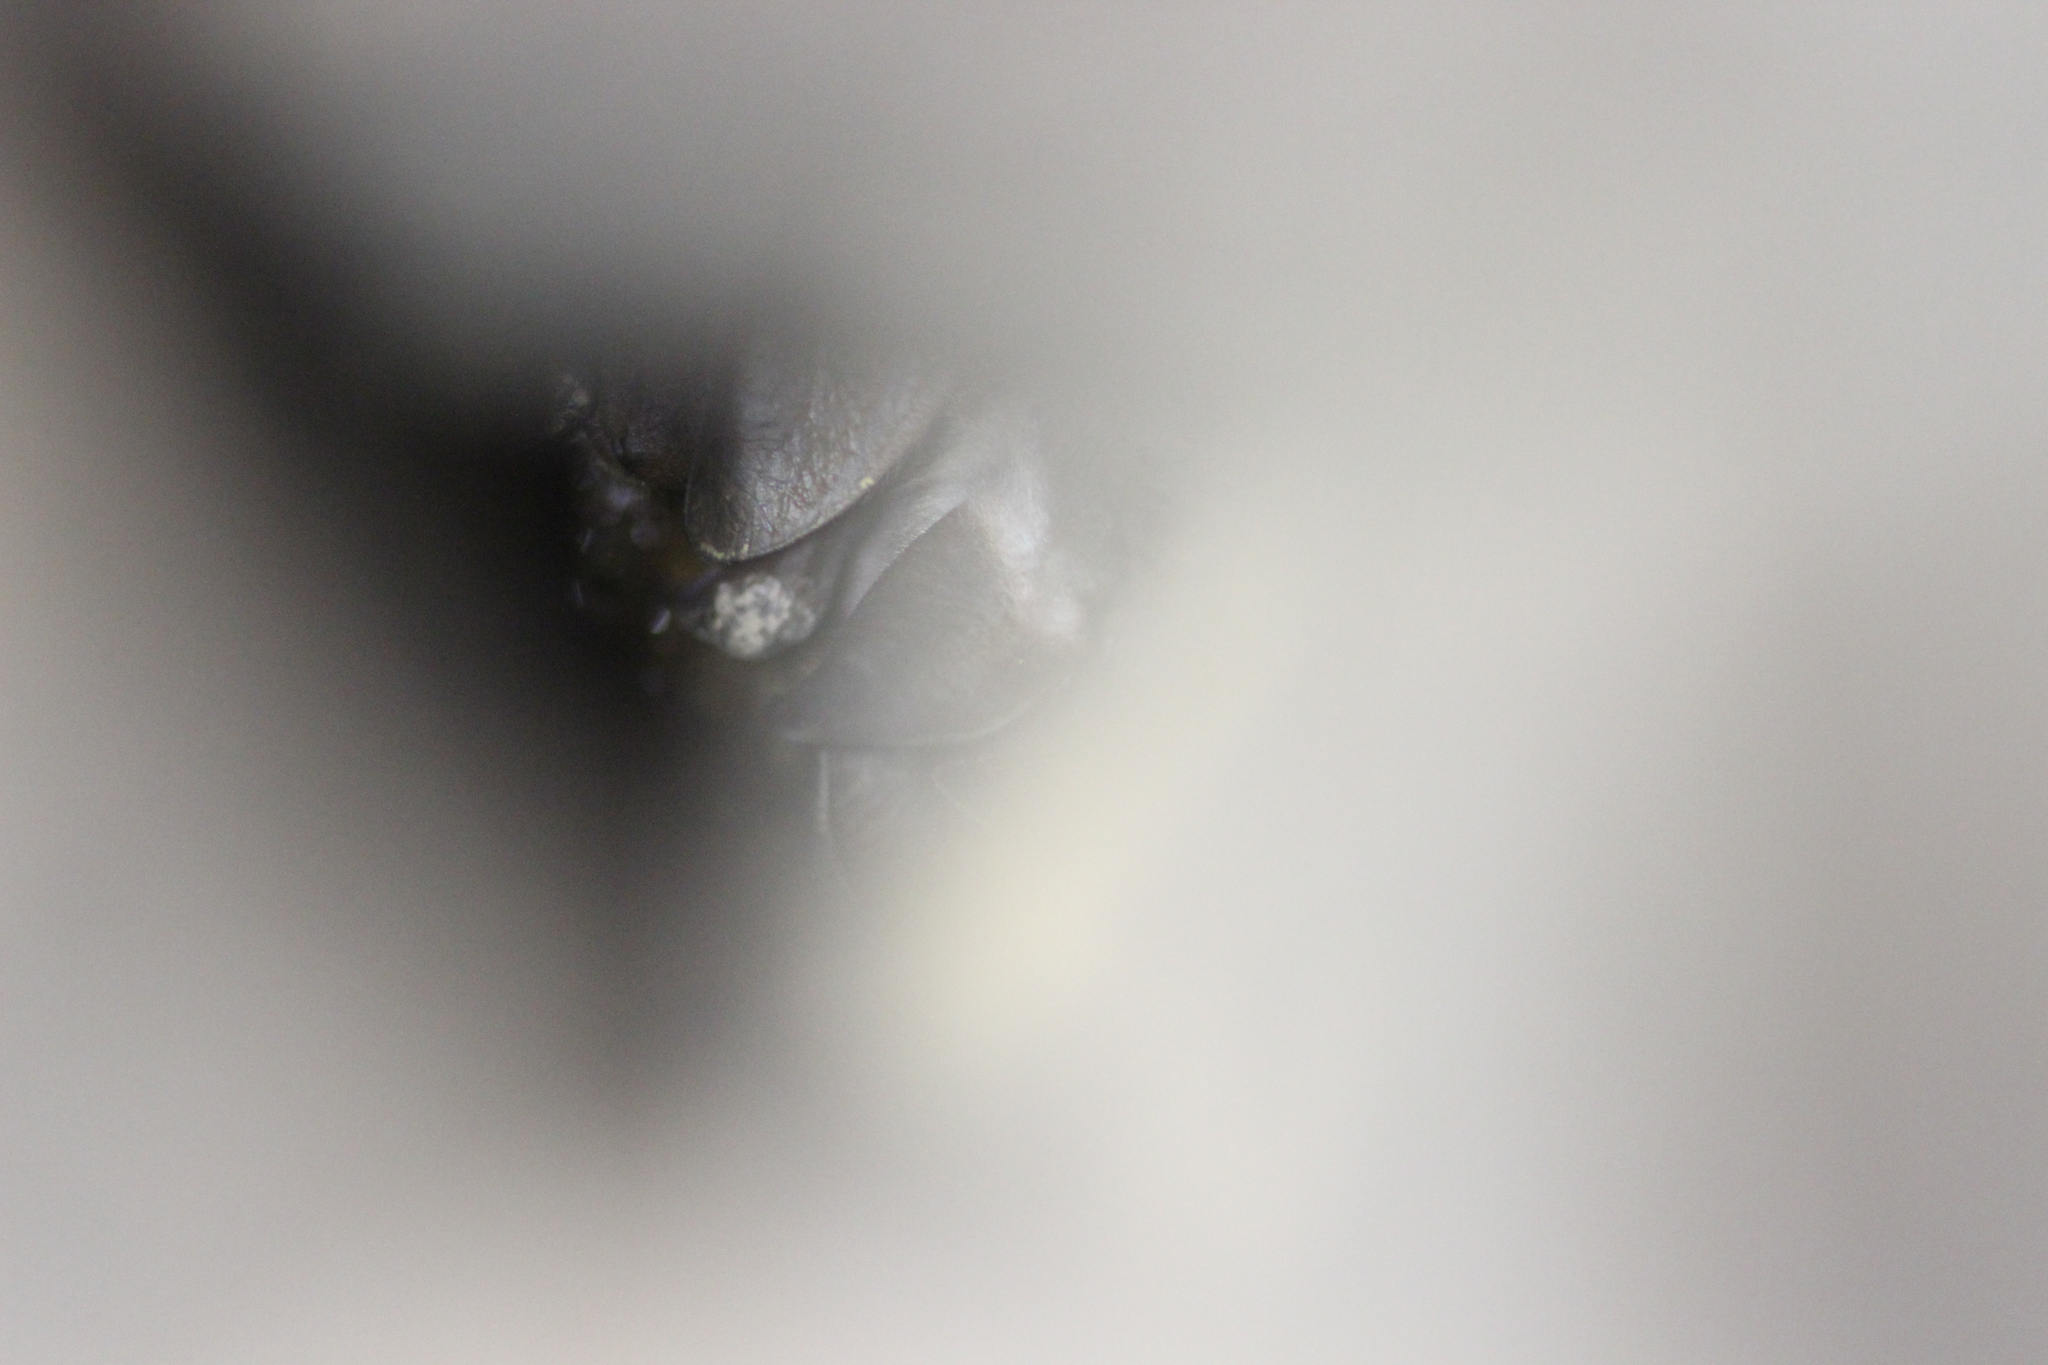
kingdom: Animalia
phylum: Chordata
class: Mammalia
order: Chiroptera
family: Vespertilionidae
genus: Myotis
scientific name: Myotis punicus
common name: Maghrebian myotis
